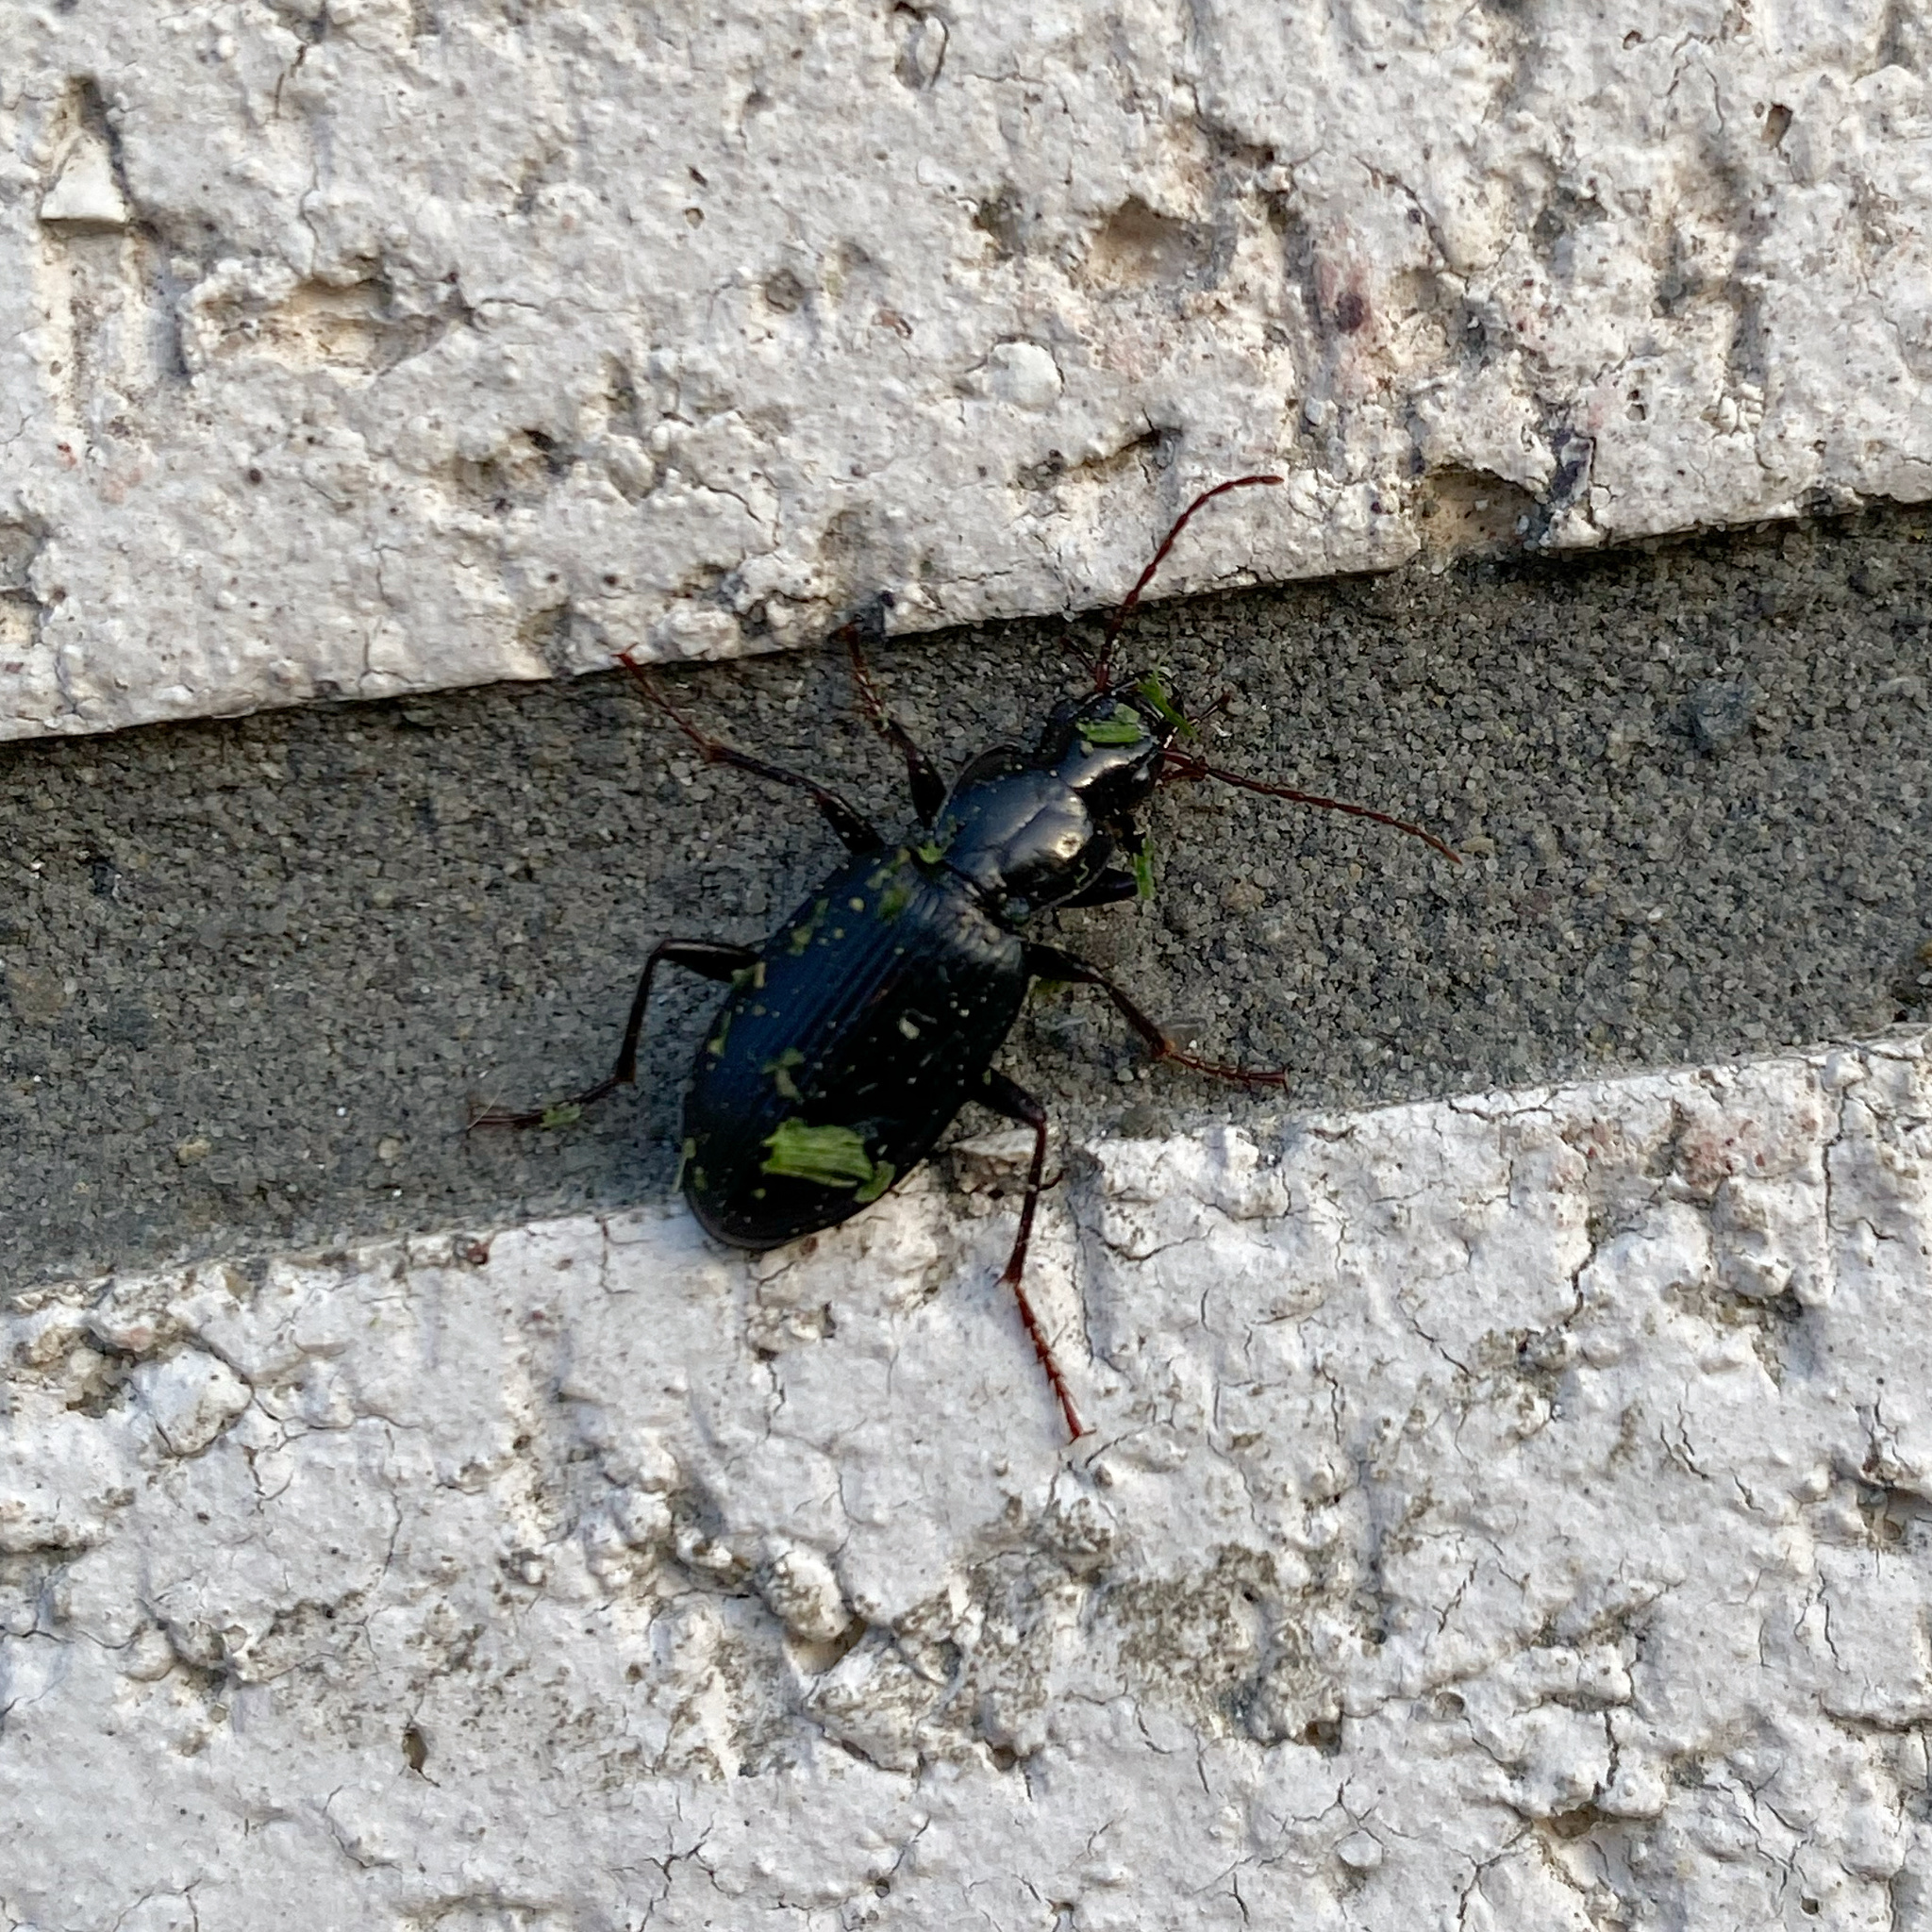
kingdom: Animalia
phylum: Arthropoda
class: Insecta
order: Coleoptera
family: Carabidae
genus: Laemostenus
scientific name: Laemostenus complanatus
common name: Cosmopolitan ground beetle
